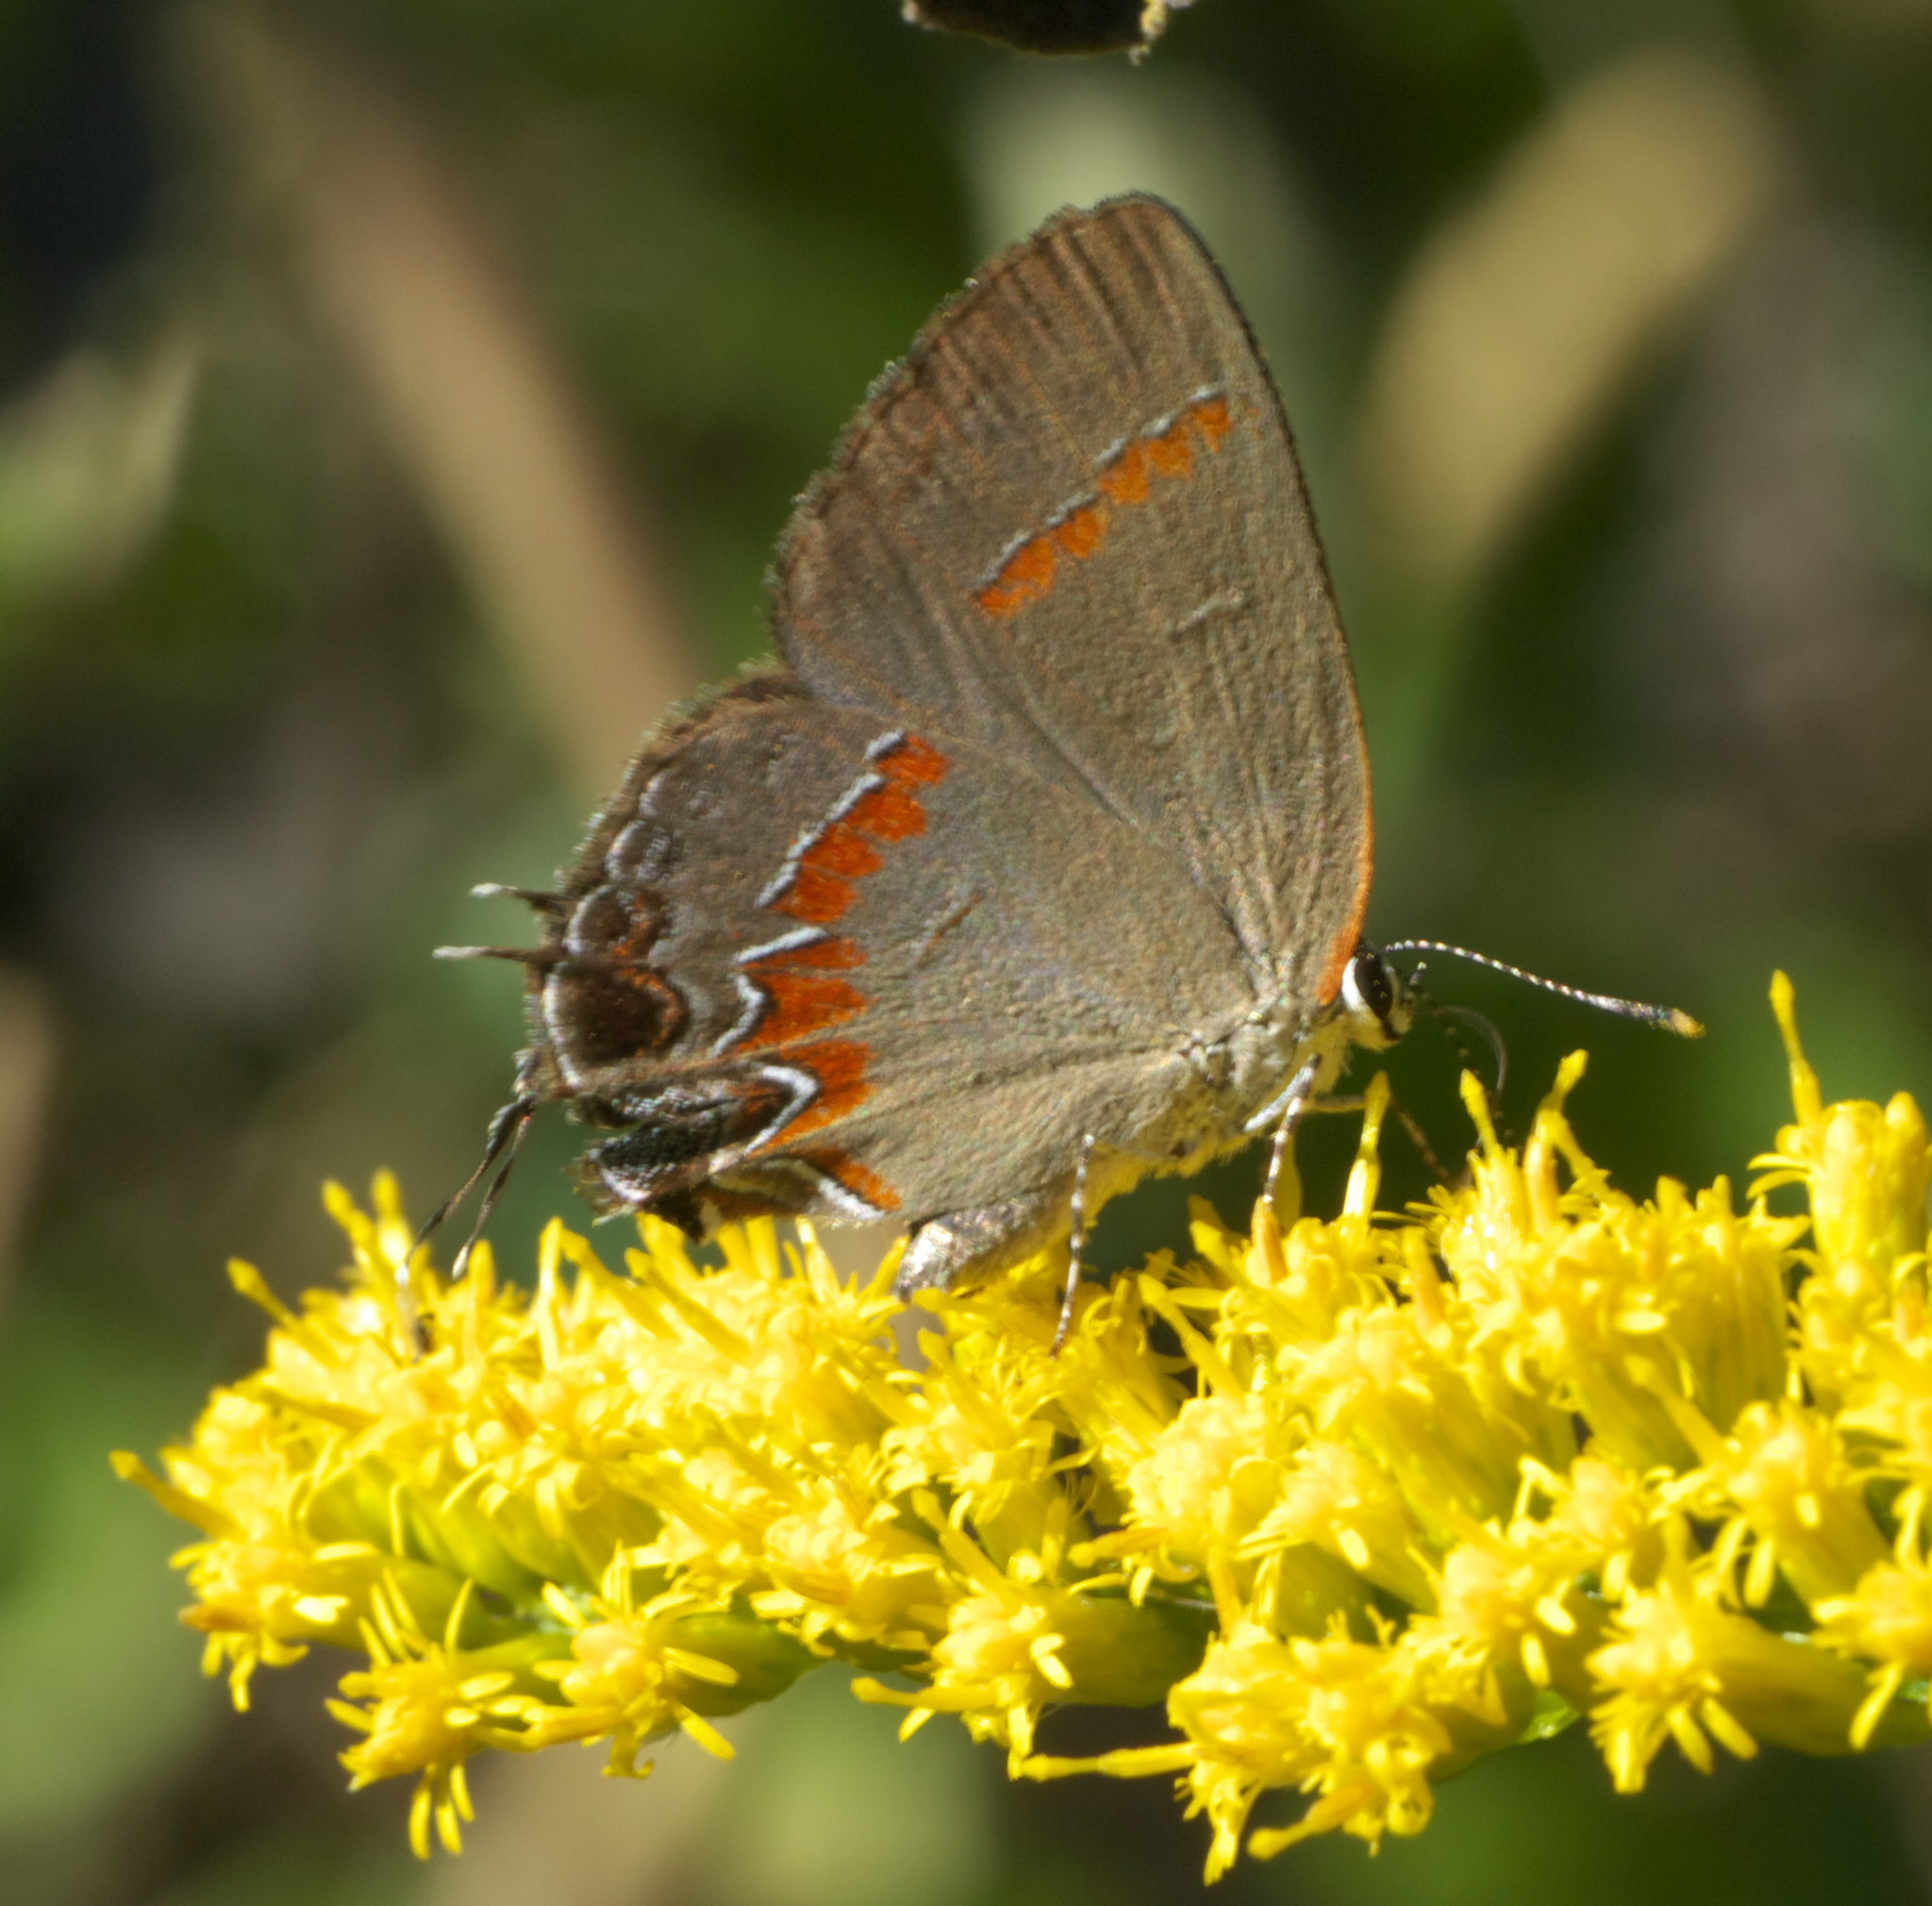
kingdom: Animalia
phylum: Arthropoda
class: Insecta
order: Lepidoptera
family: Lycaenidae
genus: Calycopis
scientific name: Calycopis cecrops
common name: Red-banded hairstreak
